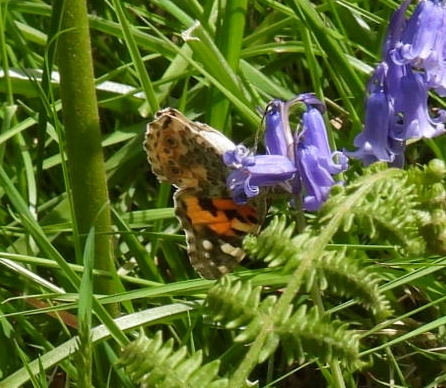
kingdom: Animalia
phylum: Arthropoda
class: Insecta
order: Lepidoptera
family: Nymphalidae
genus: Vanessa
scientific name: Vanessa cardui
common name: Painted lady
